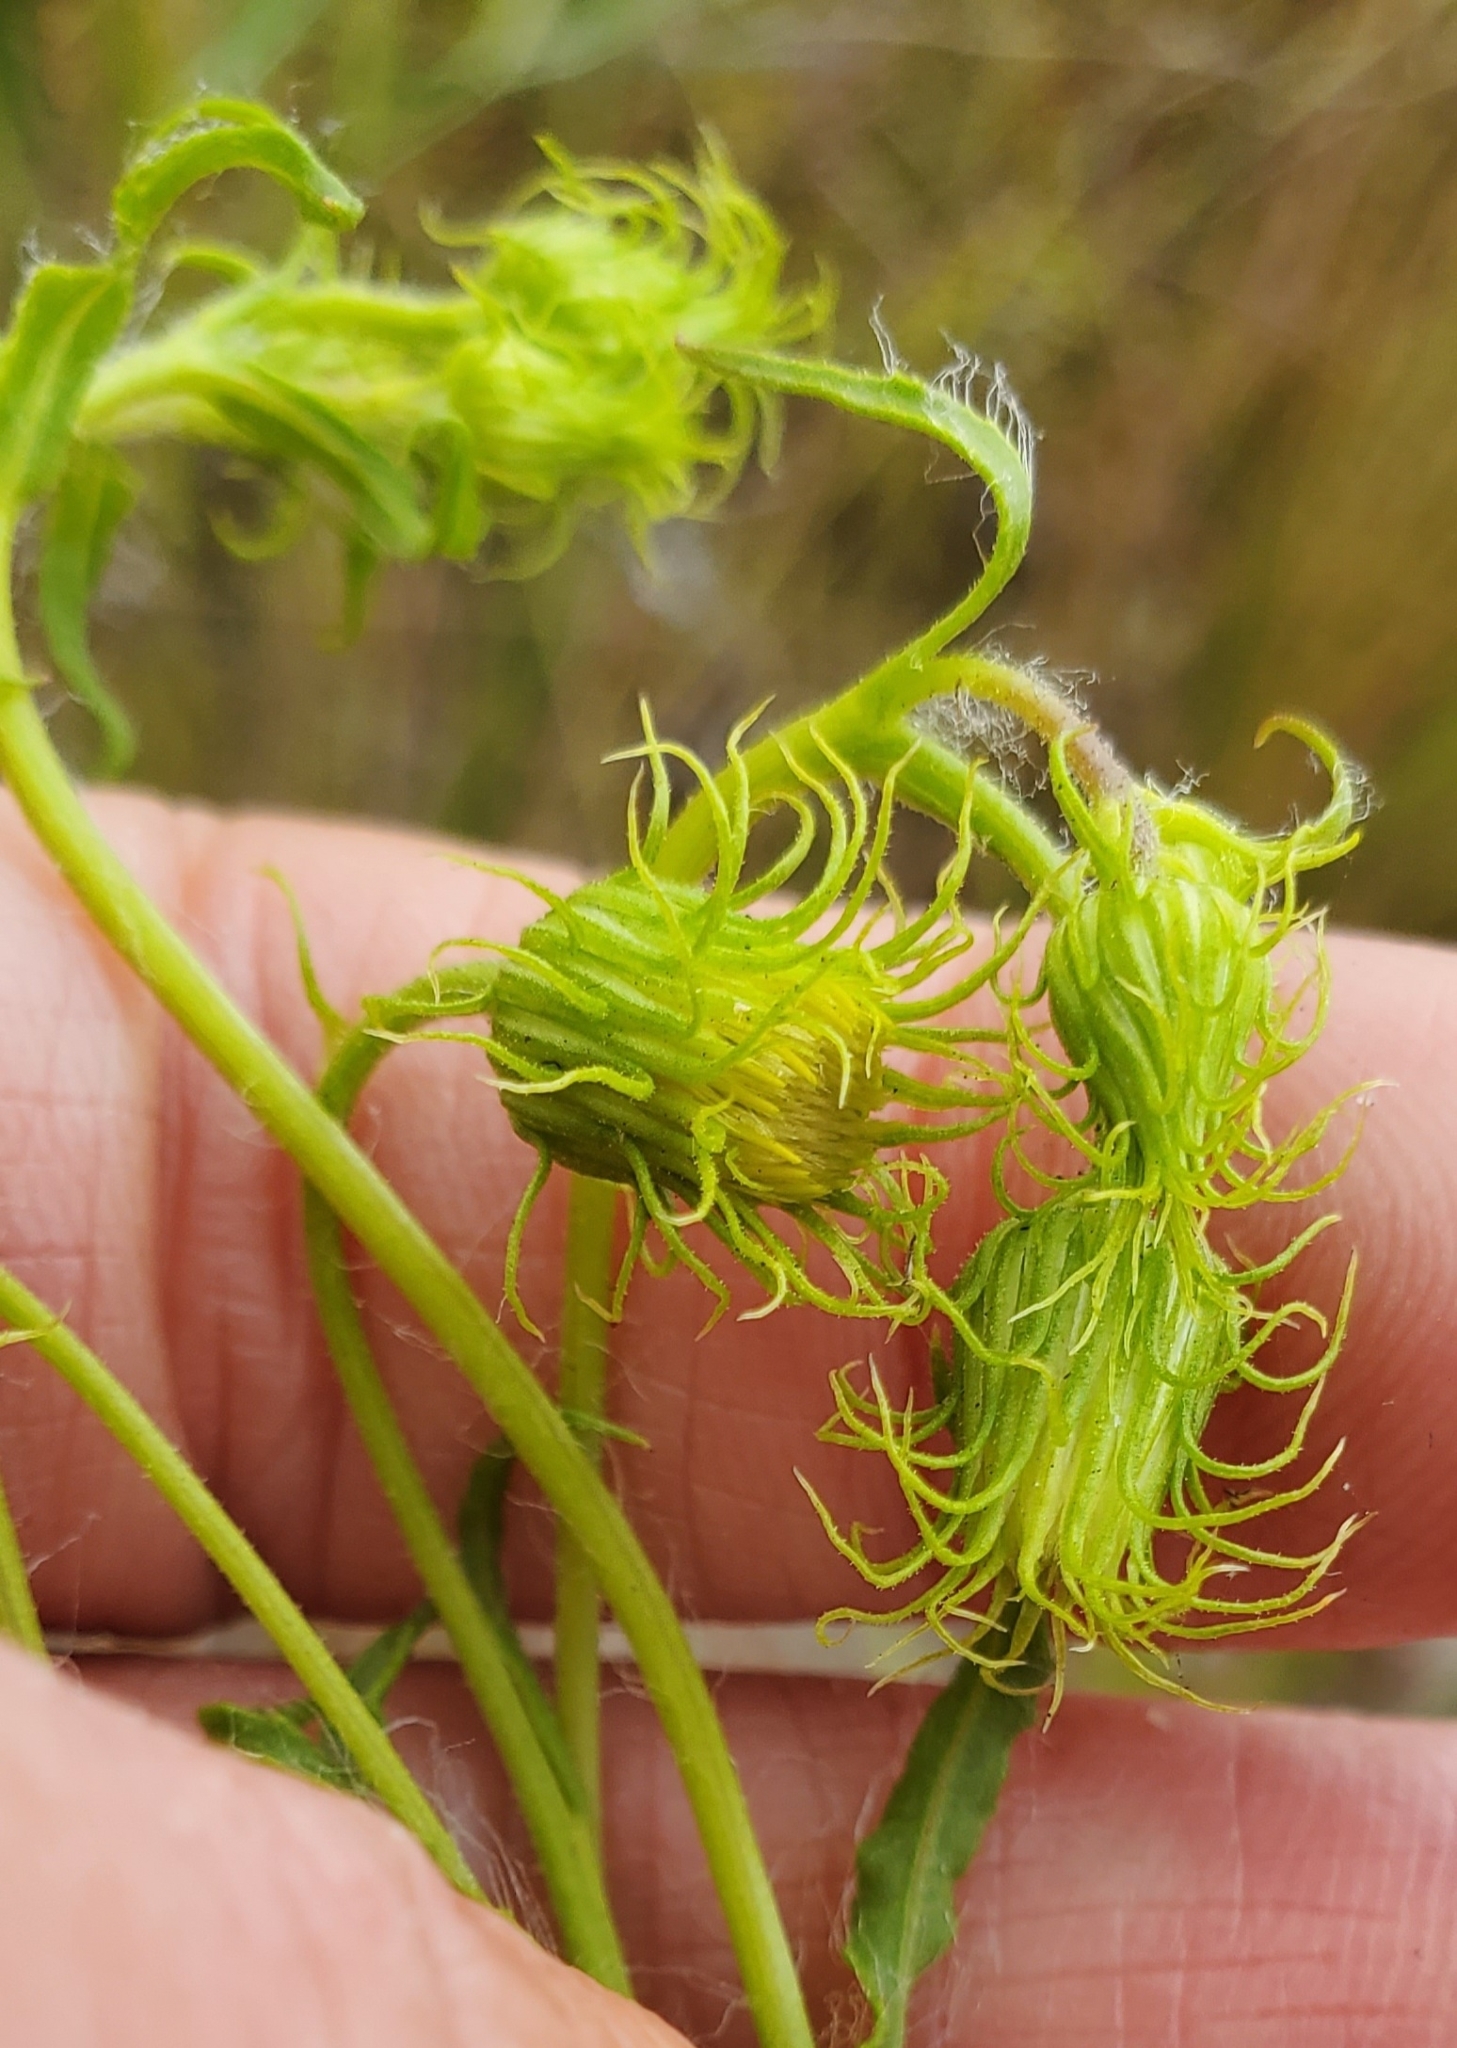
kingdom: Plantae
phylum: Tracheophyta
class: Magnoliopsida
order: Asterales
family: Asteraceae
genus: Chrysopsis
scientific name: Chrysopsis subulata
